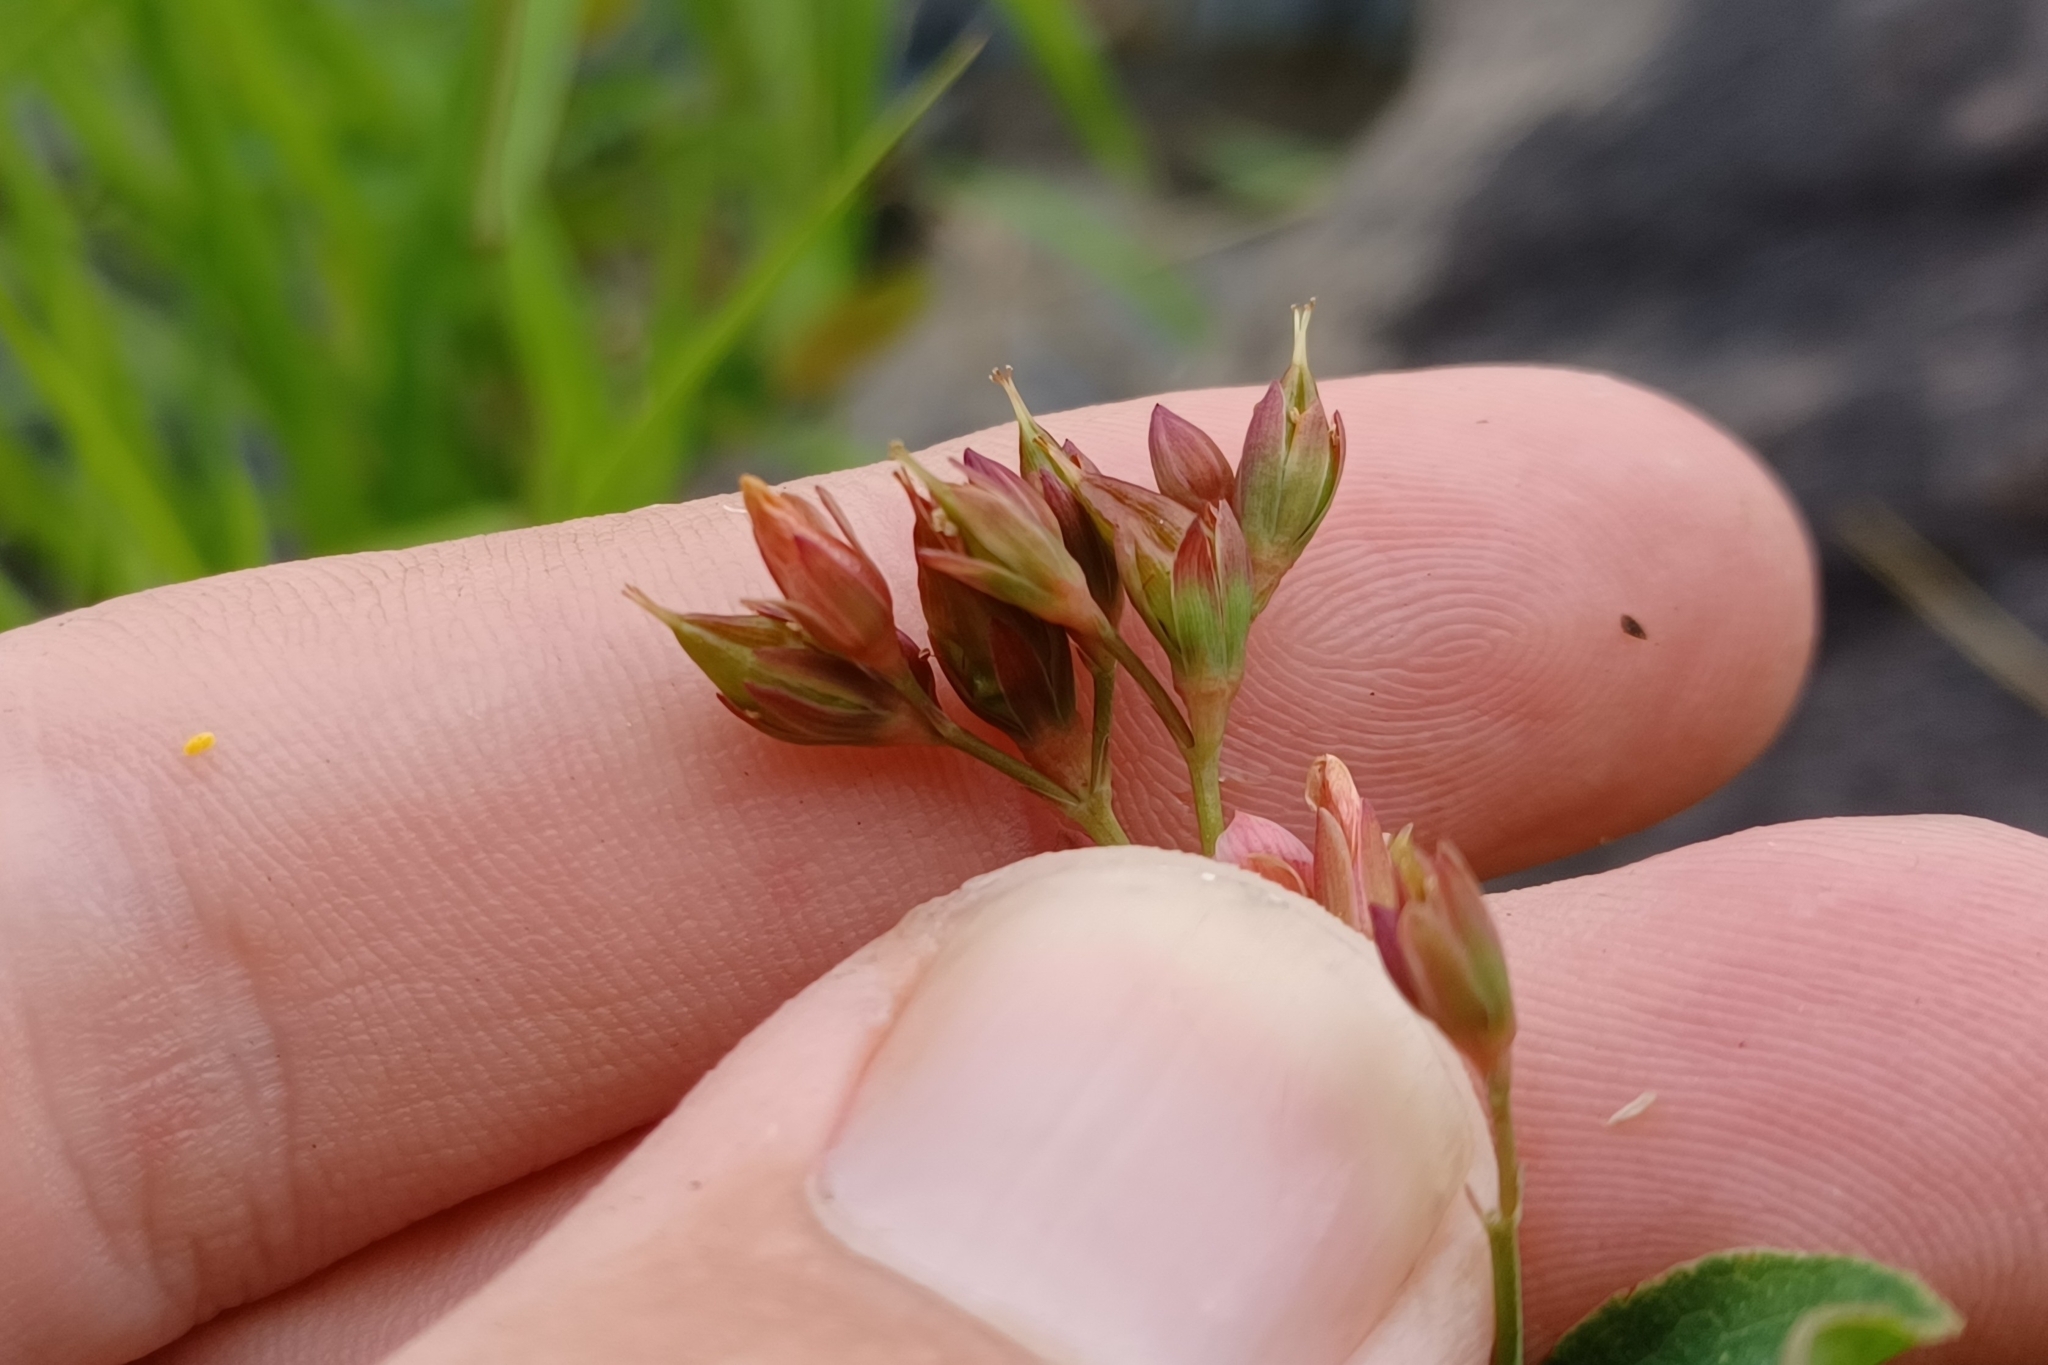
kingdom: Plantae
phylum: Tracheophyta
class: Magnoliopsida
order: Malpighiales
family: Hypericaceae
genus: Triadenum
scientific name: Triadenum virginicum
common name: Marsh st. john's-wort
